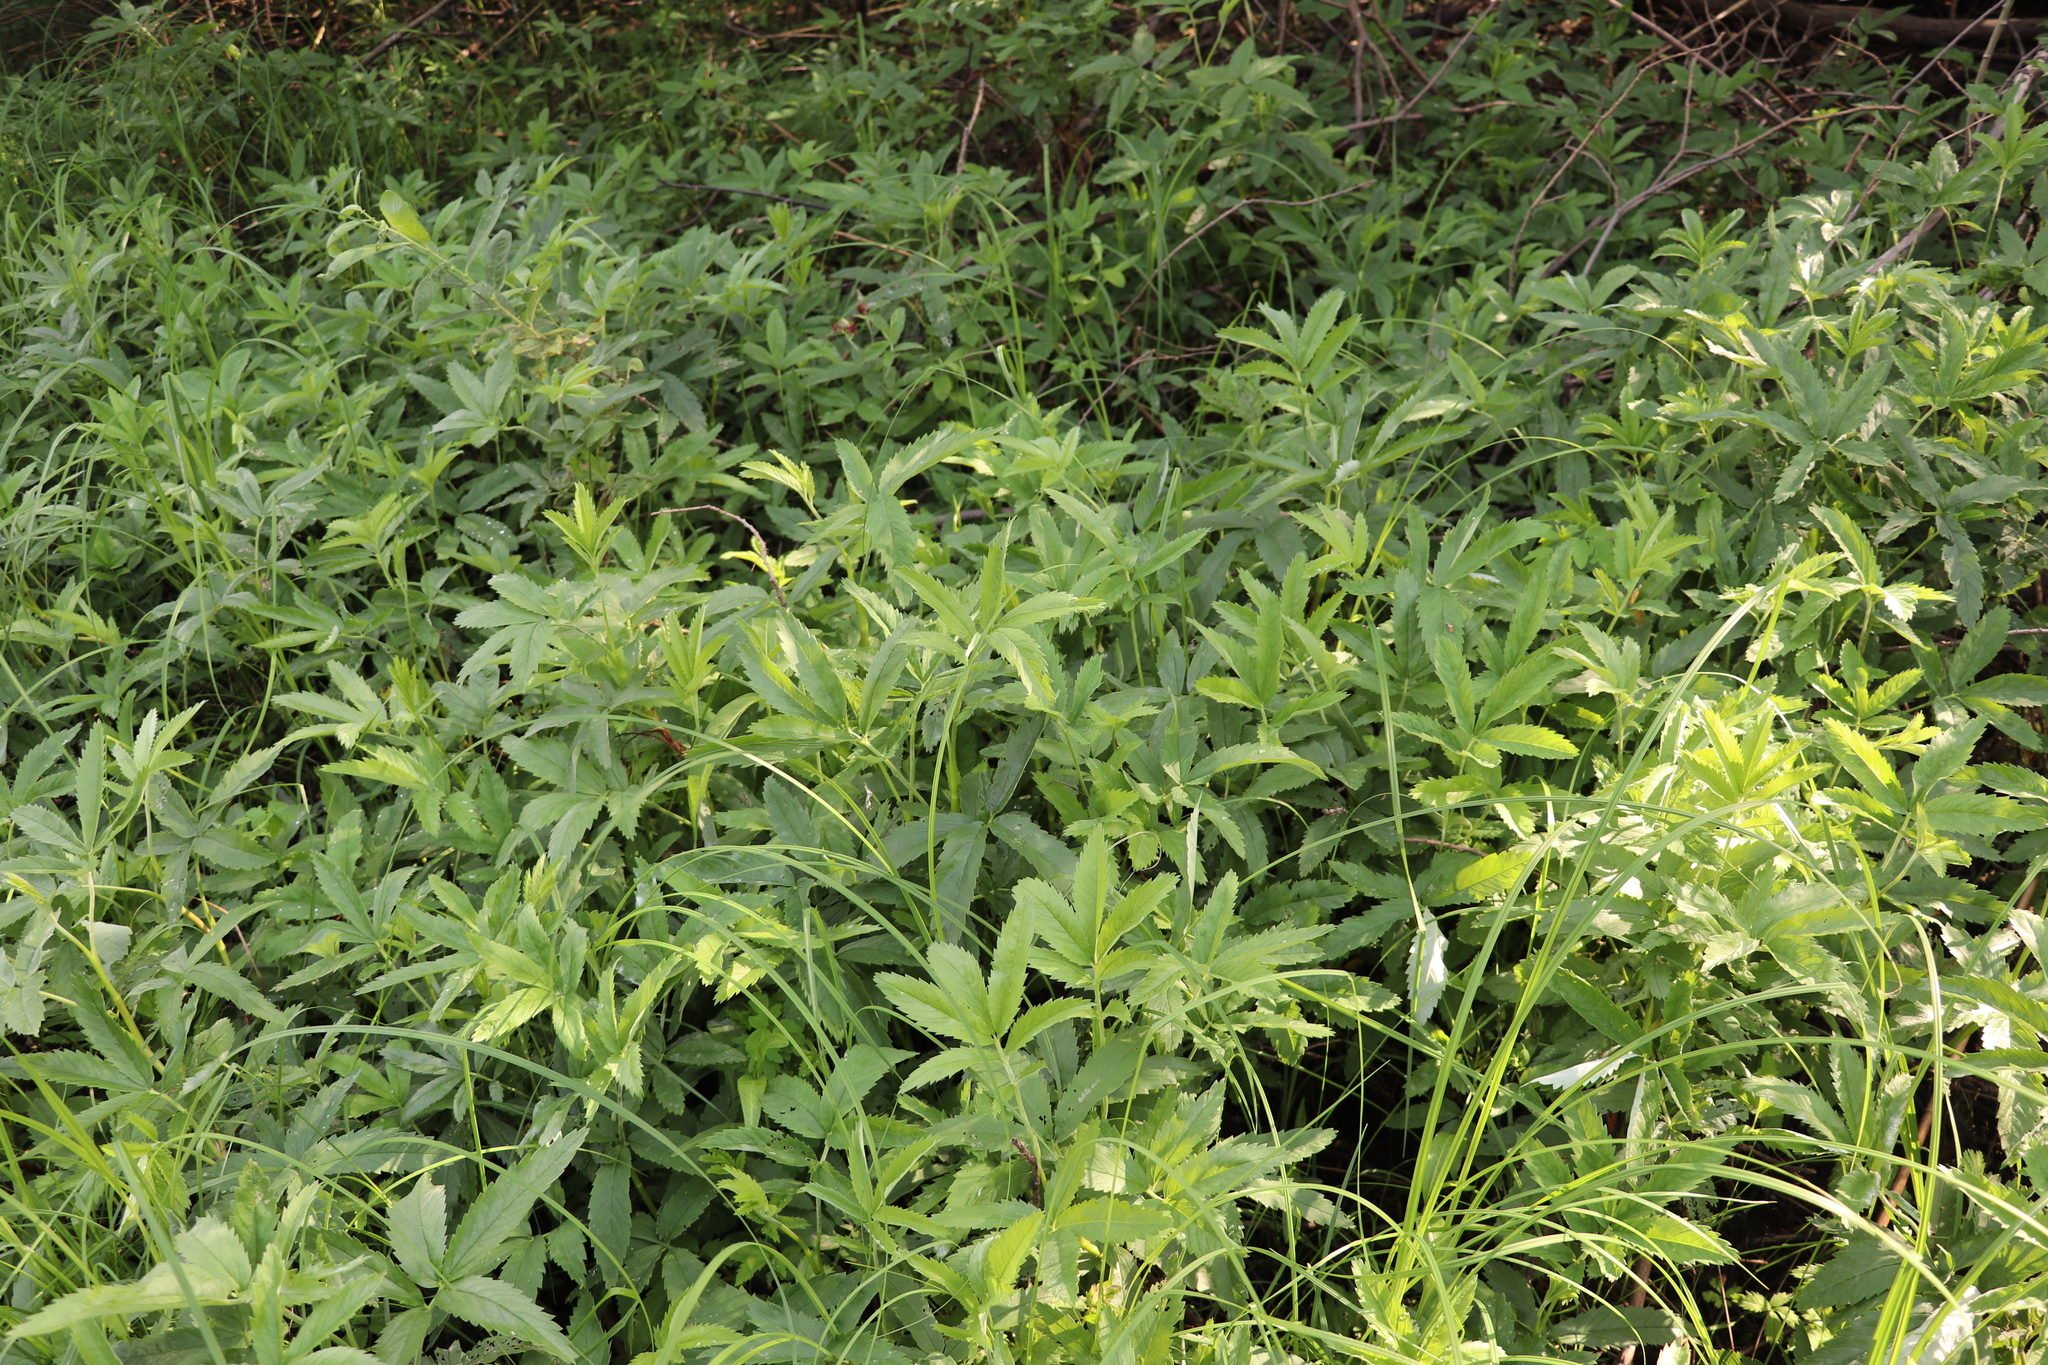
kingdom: Plantae
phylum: Tracheophyta
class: Magnoliopsida
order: Rosales
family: Rosaceae
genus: Comarum
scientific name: Comarum palustre
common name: Marsh cinquefoil
